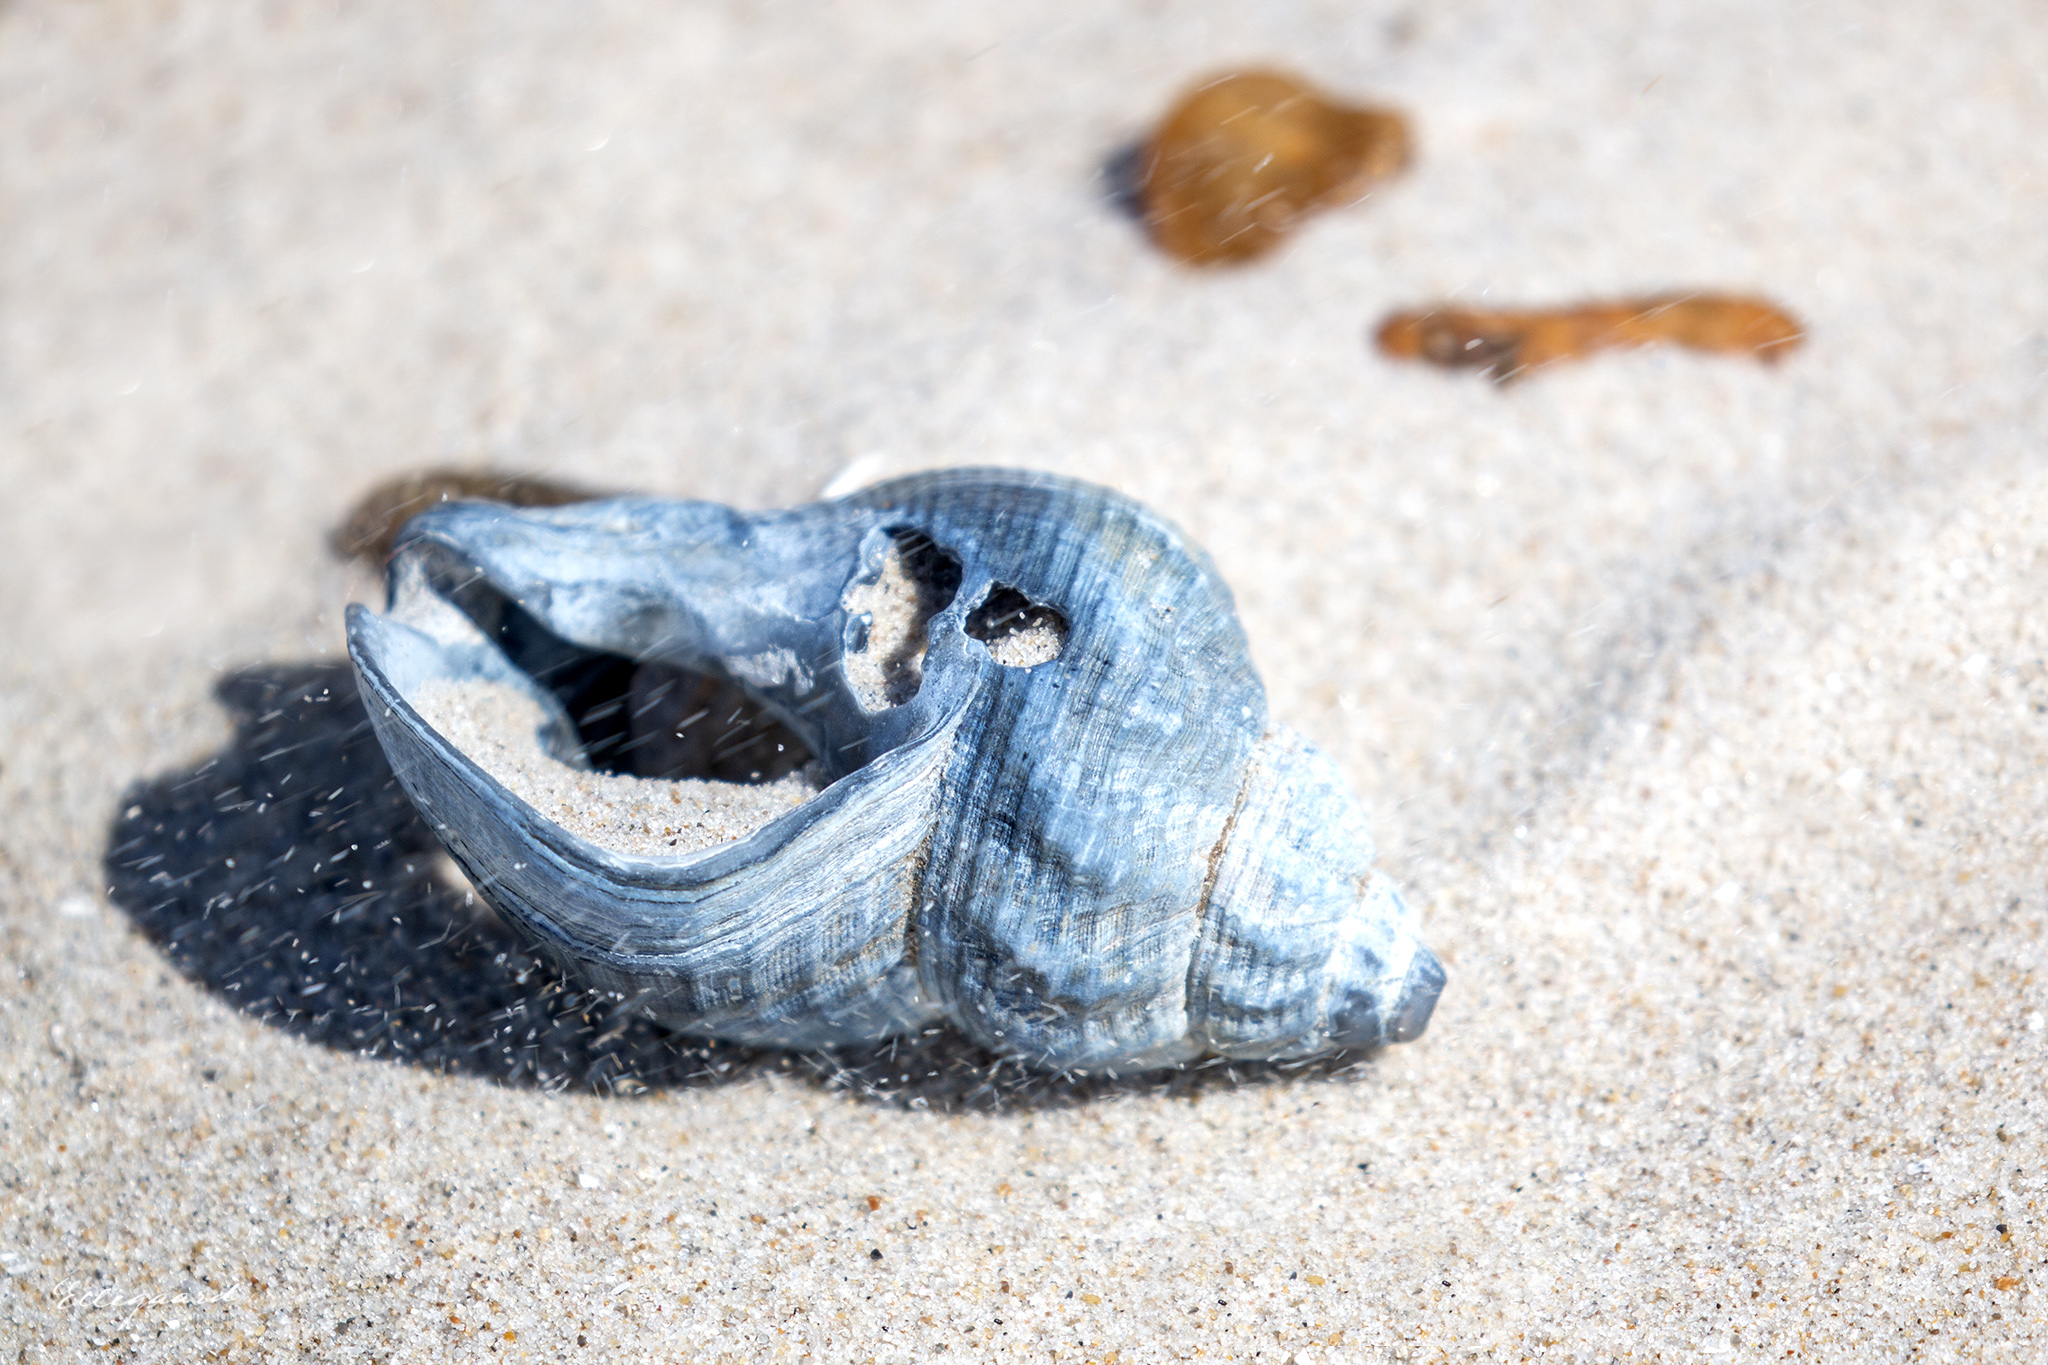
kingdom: Animalia
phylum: Mollusca
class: Gastropoda
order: Neogastropoda
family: Buccinidae
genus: Buccinum
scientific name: Buccinum undatum
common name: Common whelk
